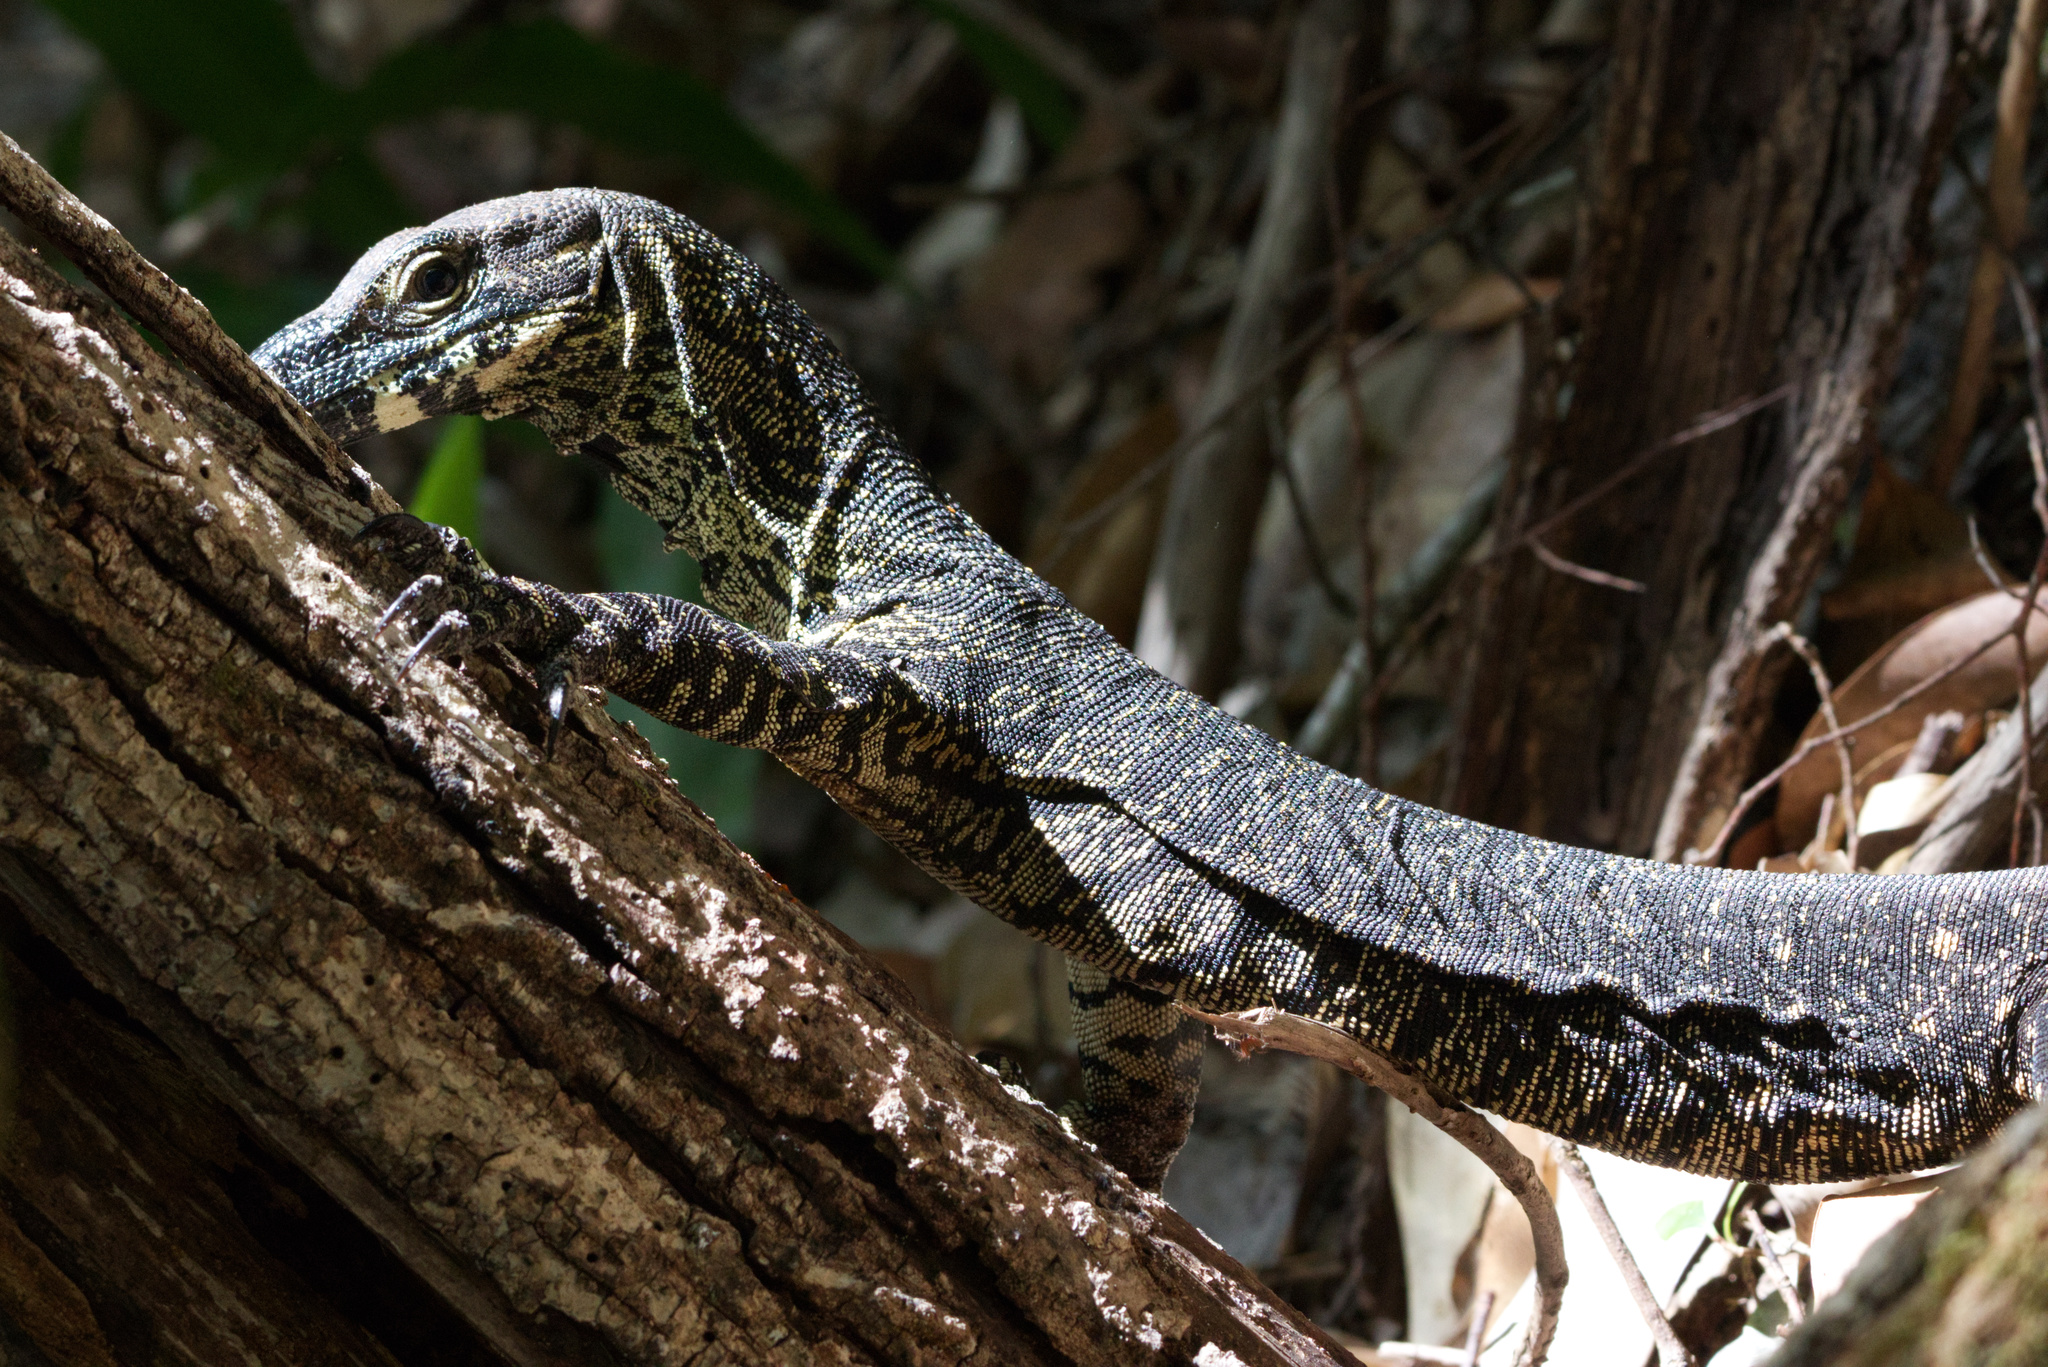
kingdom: Animalia
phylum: Chordata
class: Squamata
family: Varanidae
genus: Varanus
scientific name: Varanus varius
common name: Lace monitor
